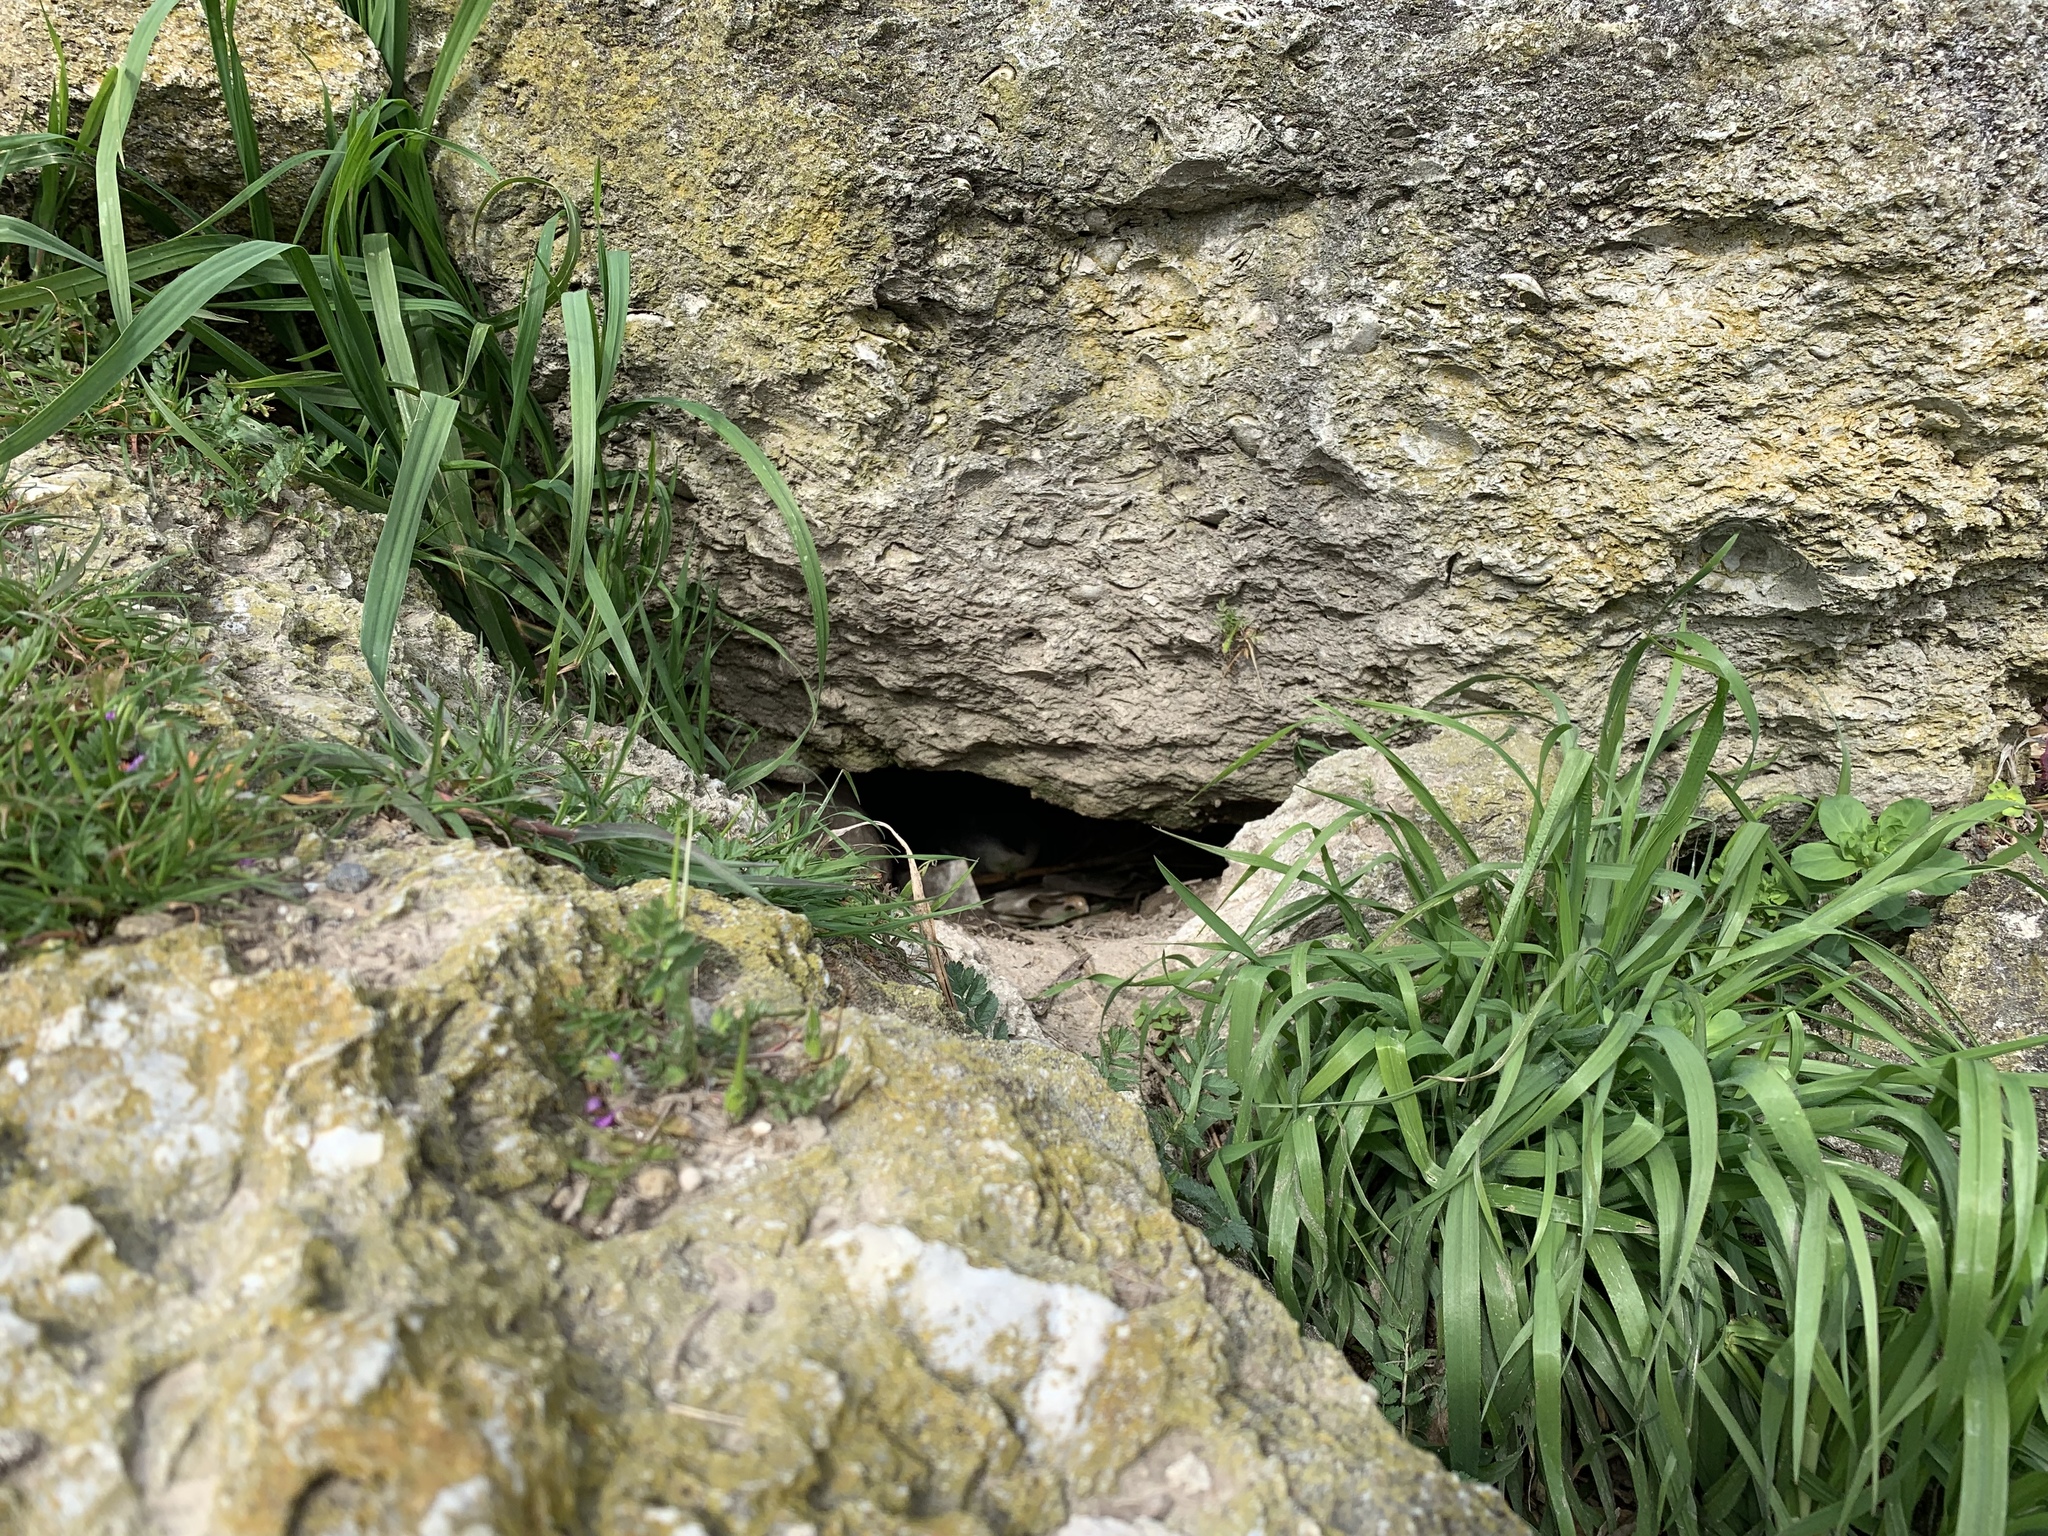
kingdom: Animalia
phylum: Chordata
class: Aves
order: Sphenisciformes
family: Spheniscidae
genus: Eudyptula
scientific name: Eudyptula minor
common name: Little penguin
